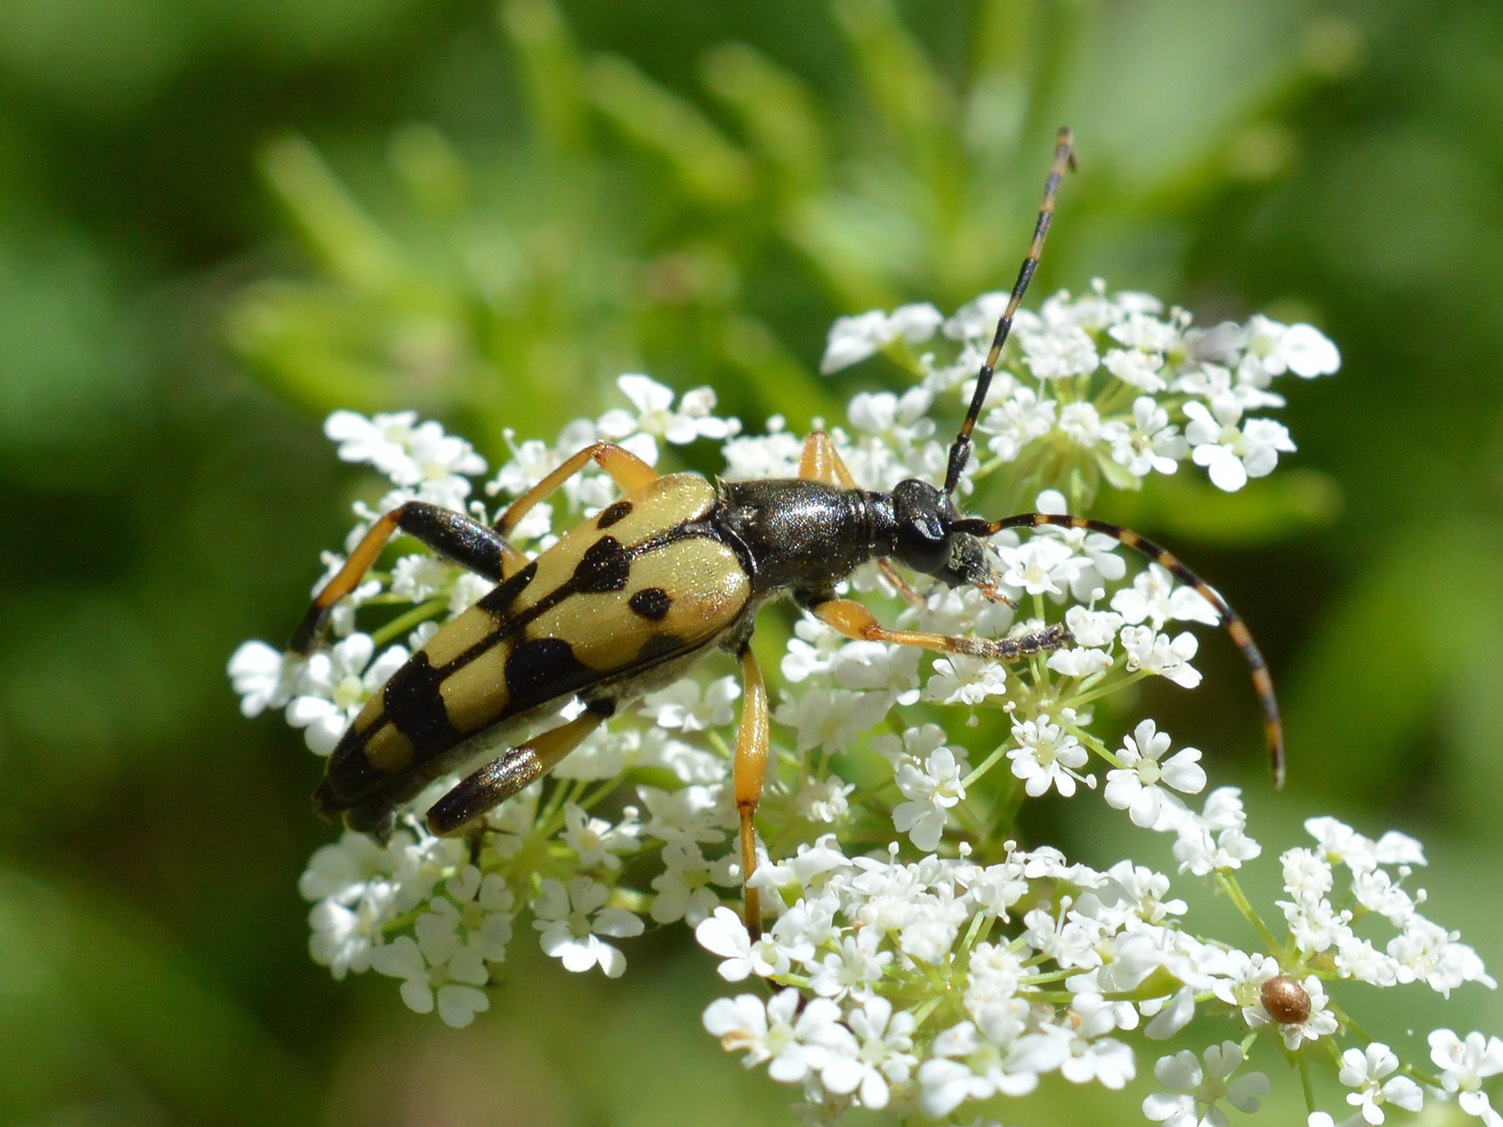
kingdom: Animalia
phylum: Arthropoda
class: Insecta
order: Coleoptera
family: Cerambycidae
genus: Rutpela
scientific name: Rutpela maculata
